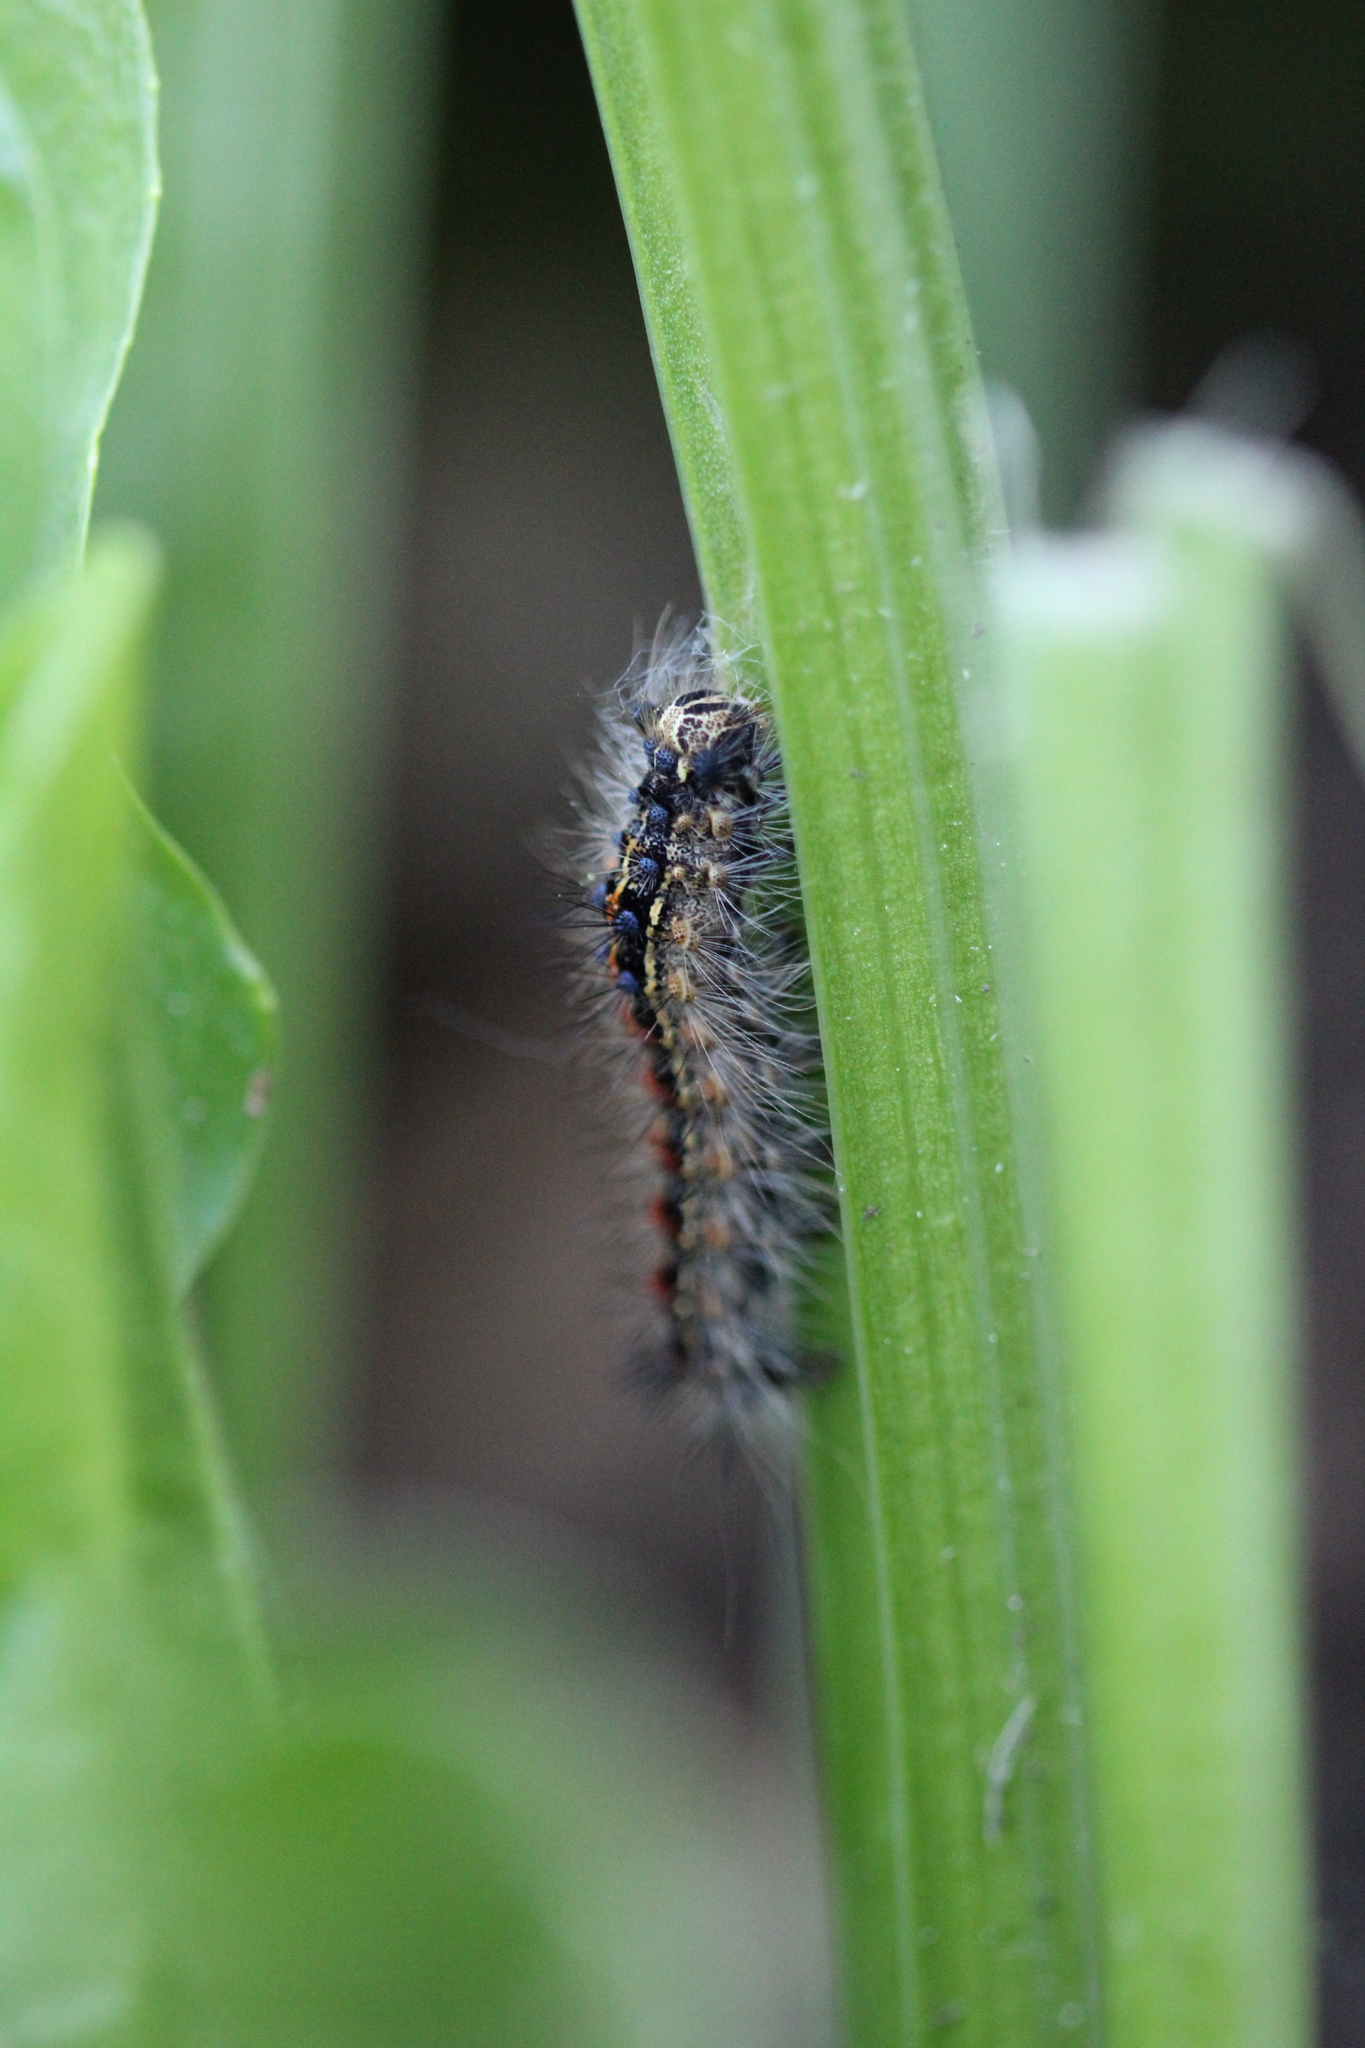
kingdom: Animalia
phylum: Arthropoda
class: Insecta
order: Lepidoptera
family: Erebidae
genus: Lymantria
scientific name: Lymantria dispar
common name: Gypsy moth
